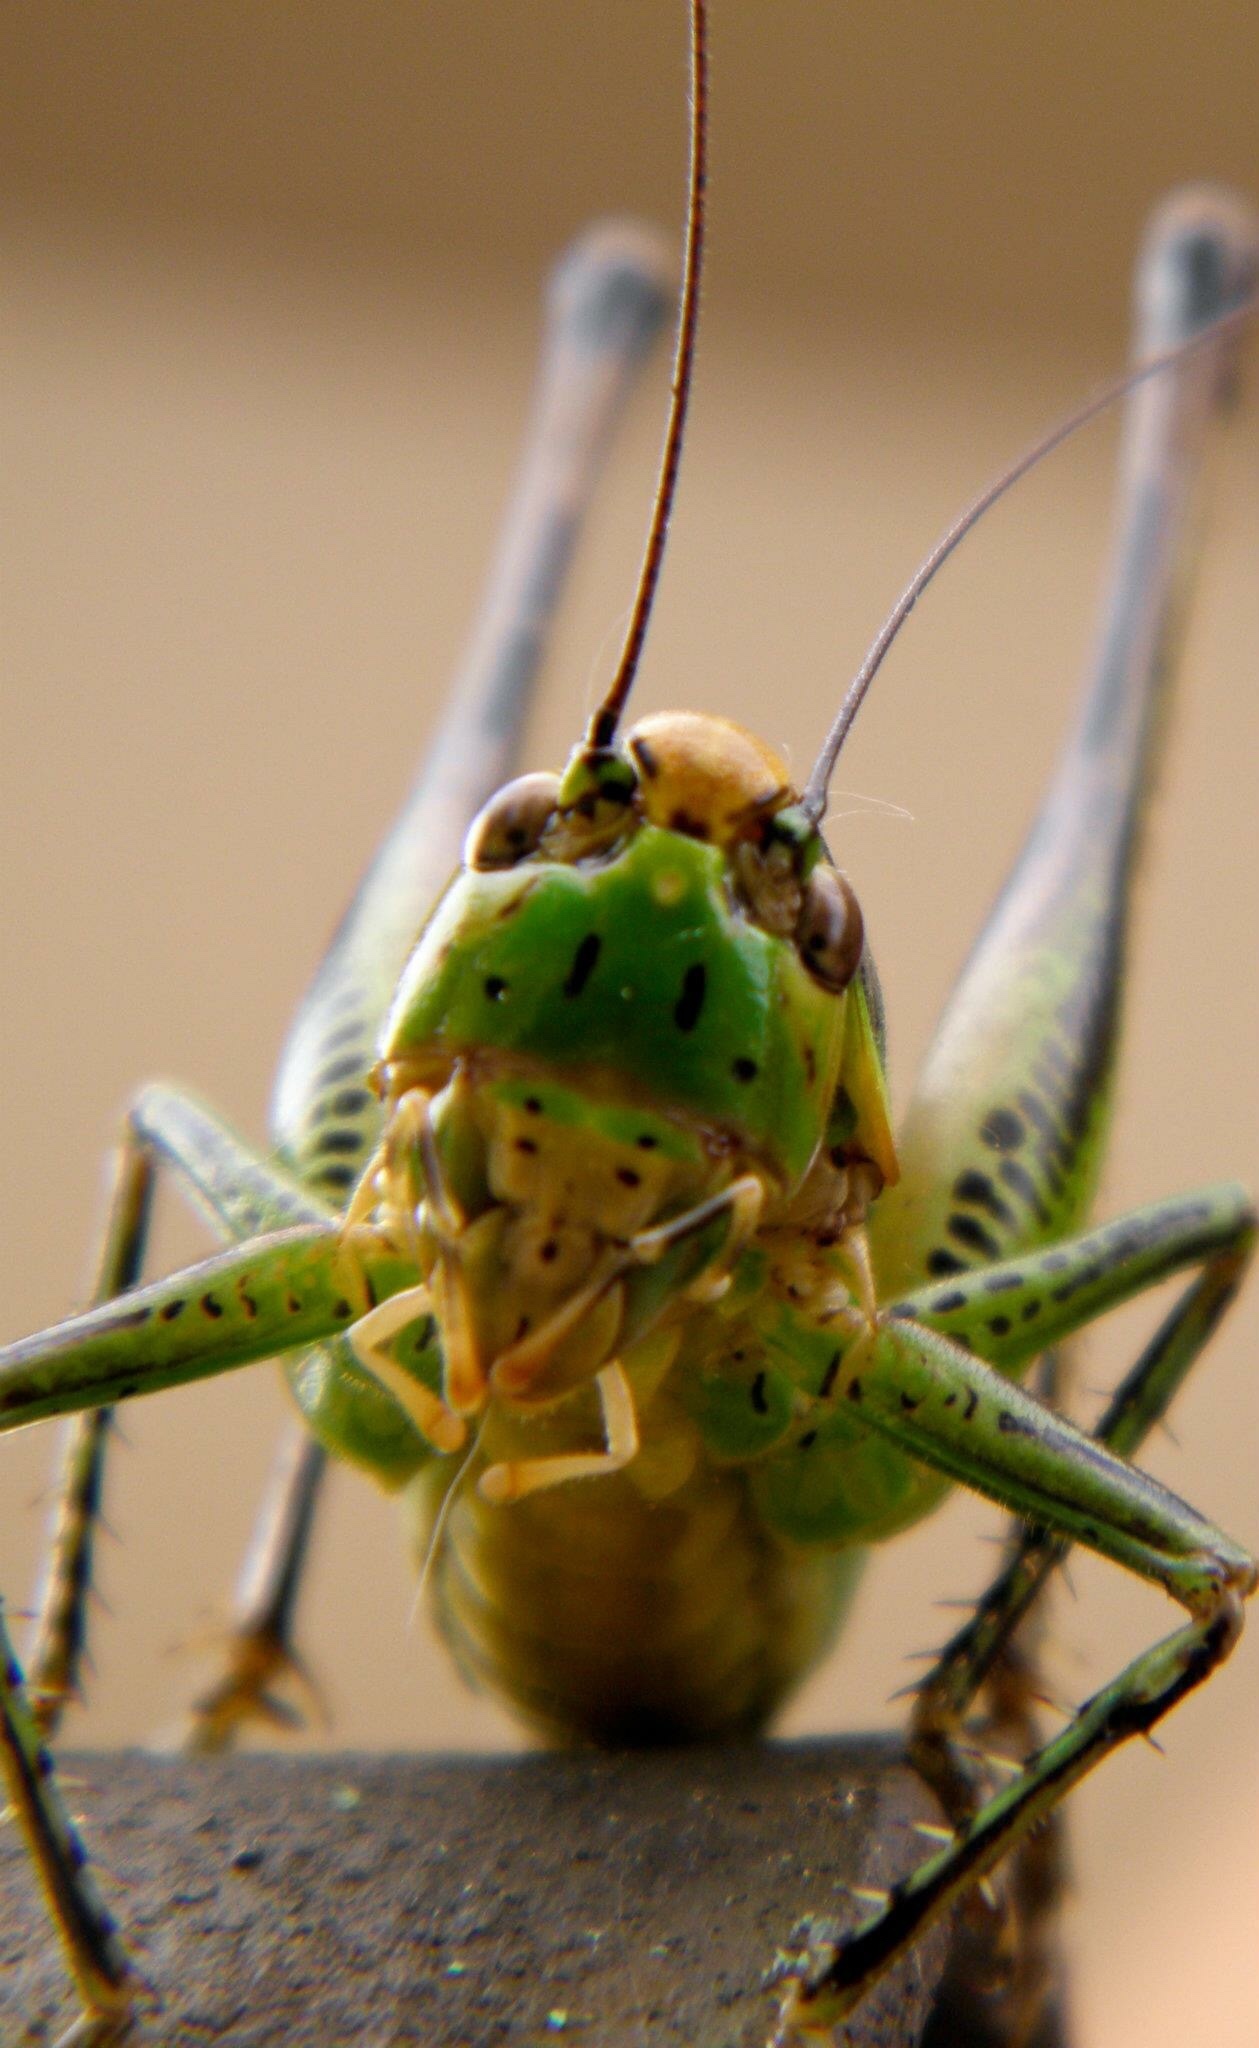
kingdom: Animalia
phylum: Arthropoda
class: Insecta
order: Orthoptera
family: Tettigoniidae
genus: Eupholidoptera
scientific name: Eupholidoptera chabrieri
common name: Chabrier's marbled bush-cricket
